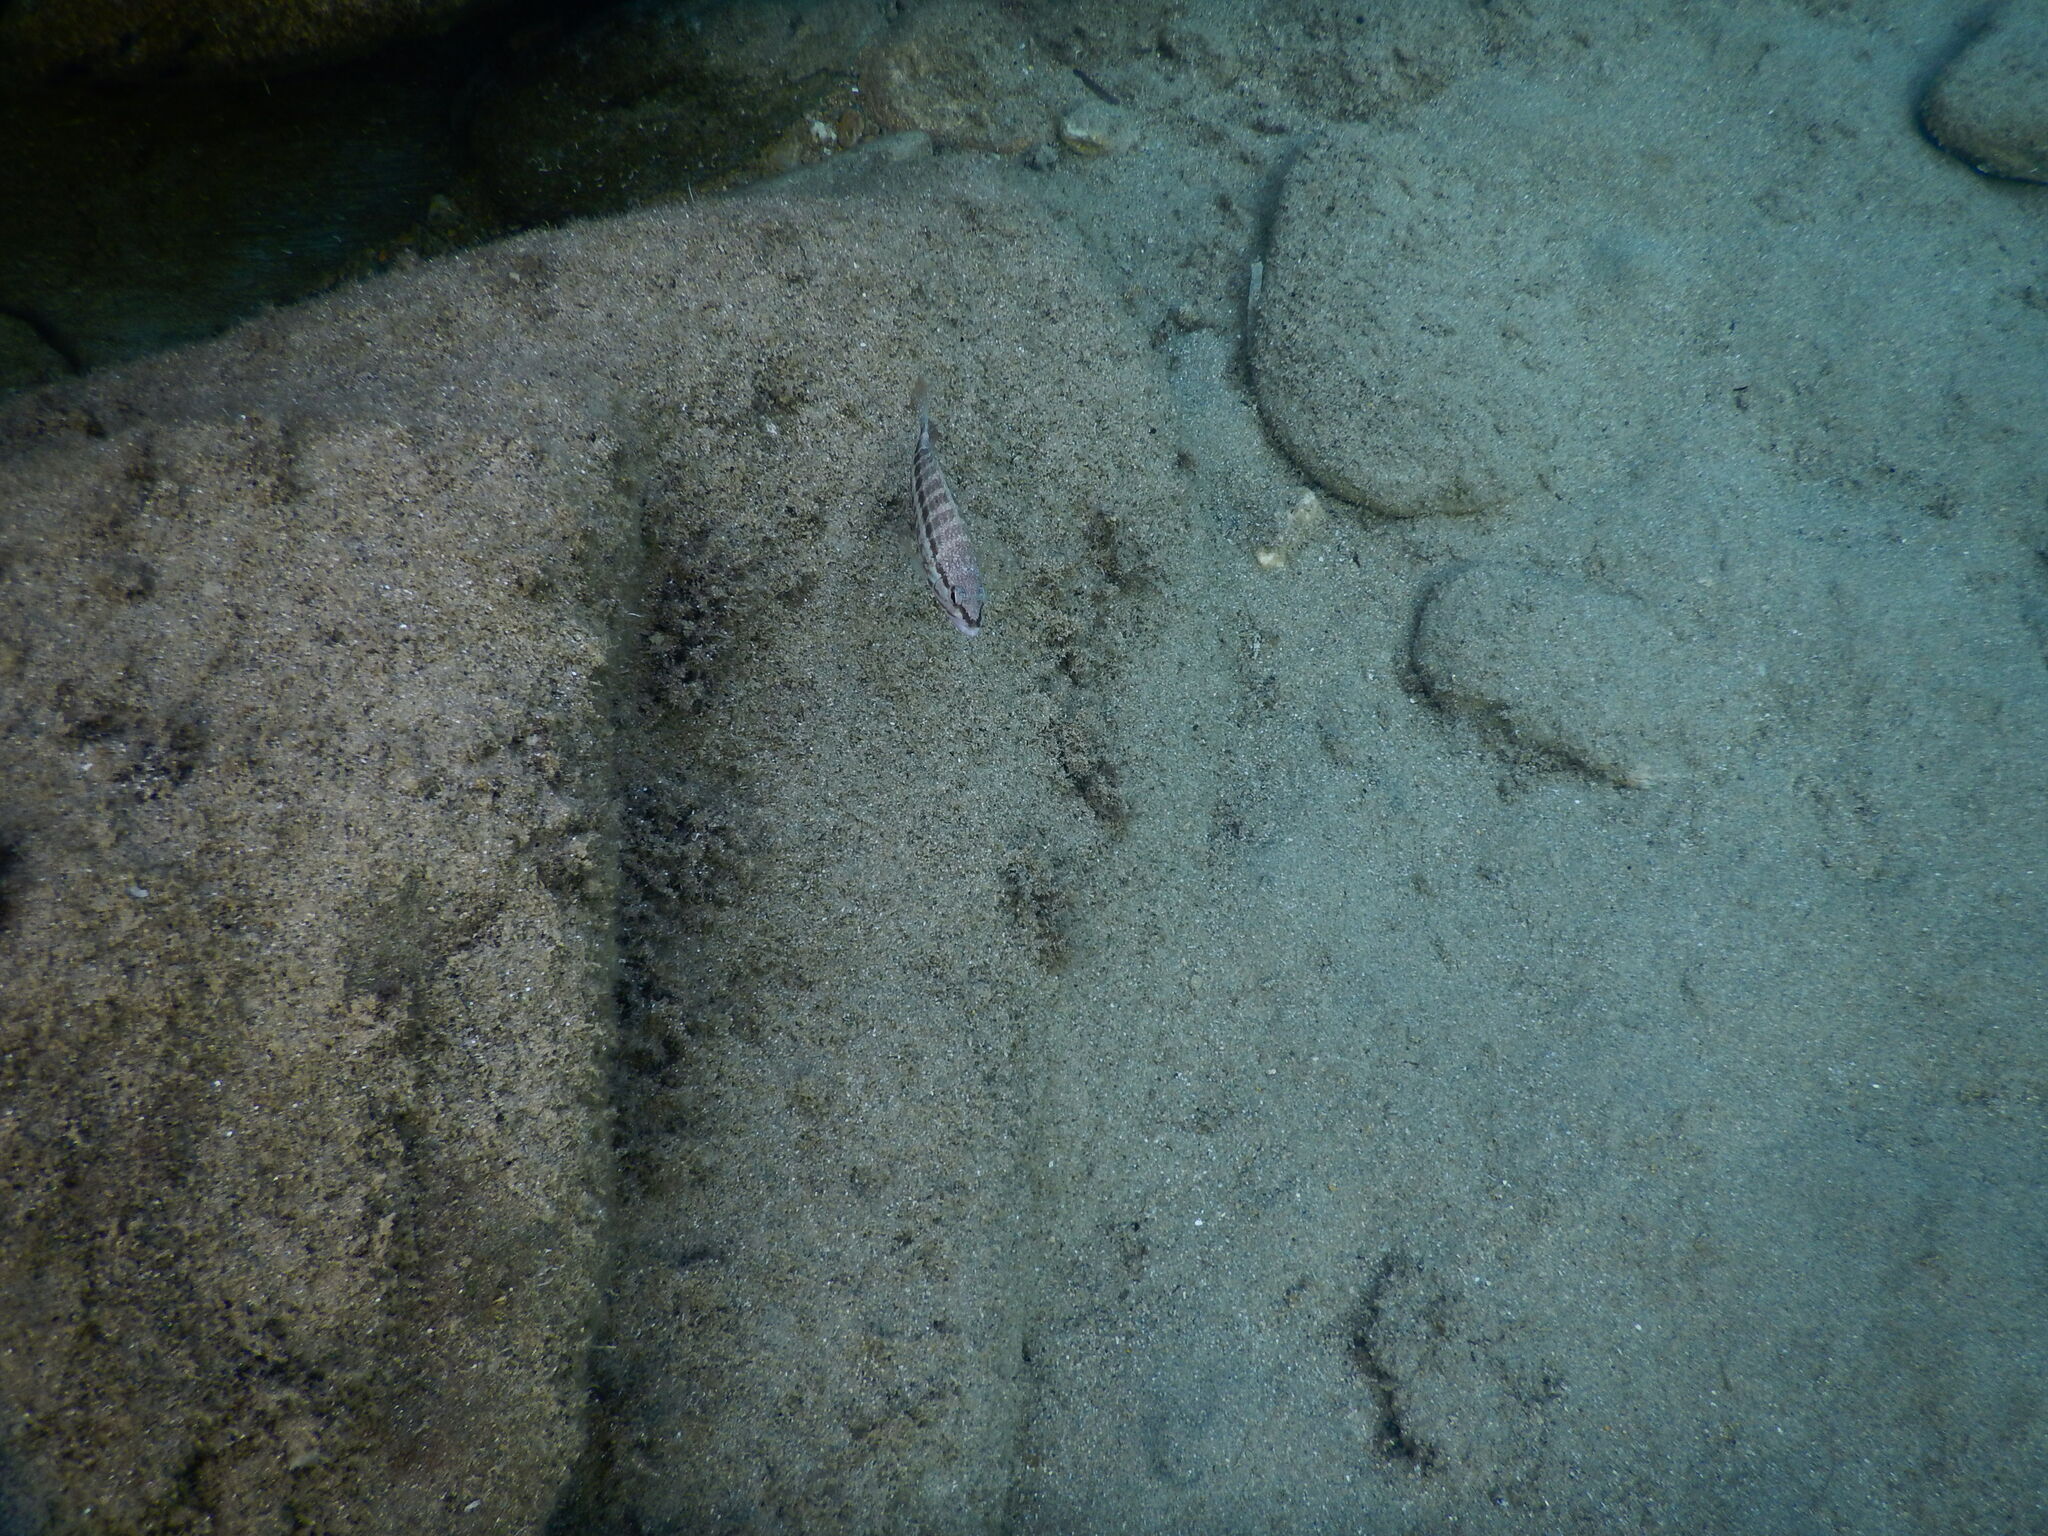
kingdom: Animalia
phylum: Chordata
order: Perciformes
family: Serranidae
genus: Serranus
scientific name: Serranus cabrilla
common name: Comber
